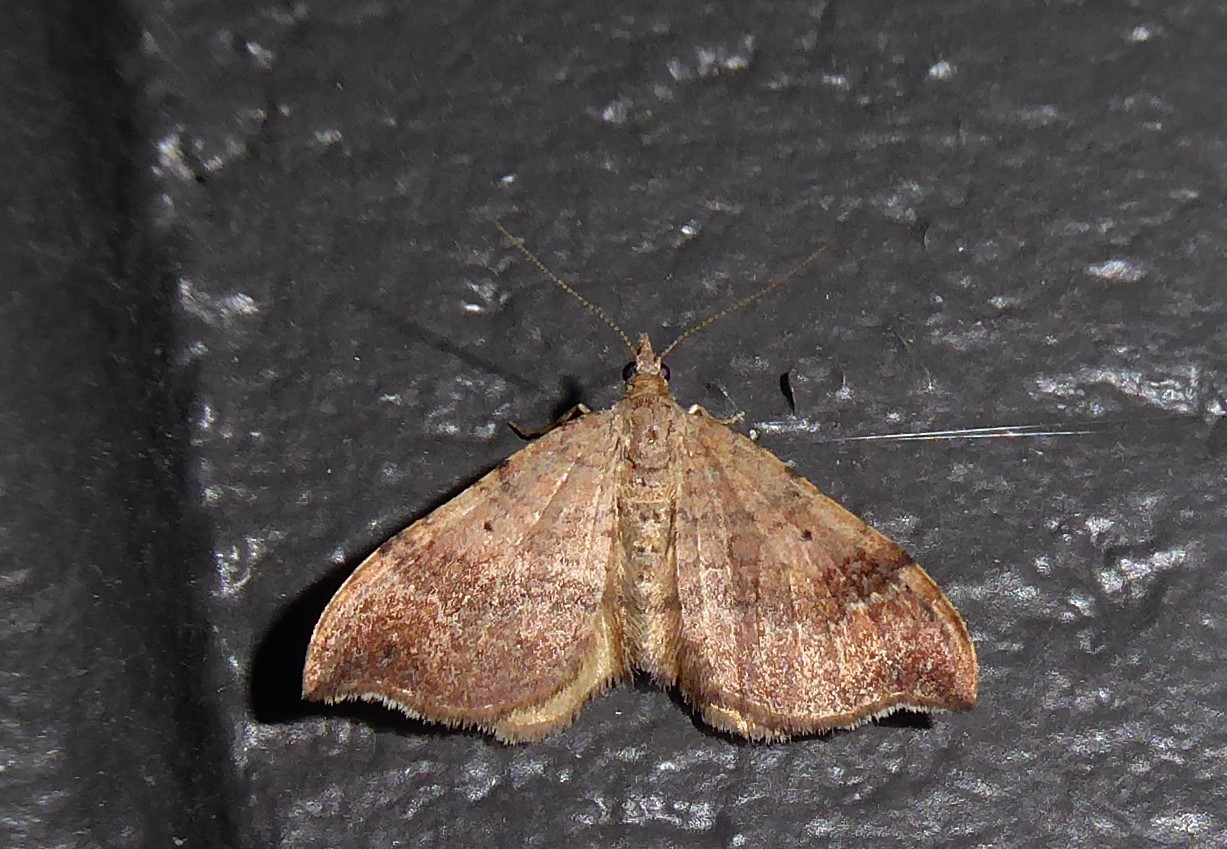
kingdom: Animalia
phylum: Arthropoda
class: Insecta
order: Lepidoptera
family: Geometridae
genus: Homodotis
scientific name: Homodotis megaspilata
